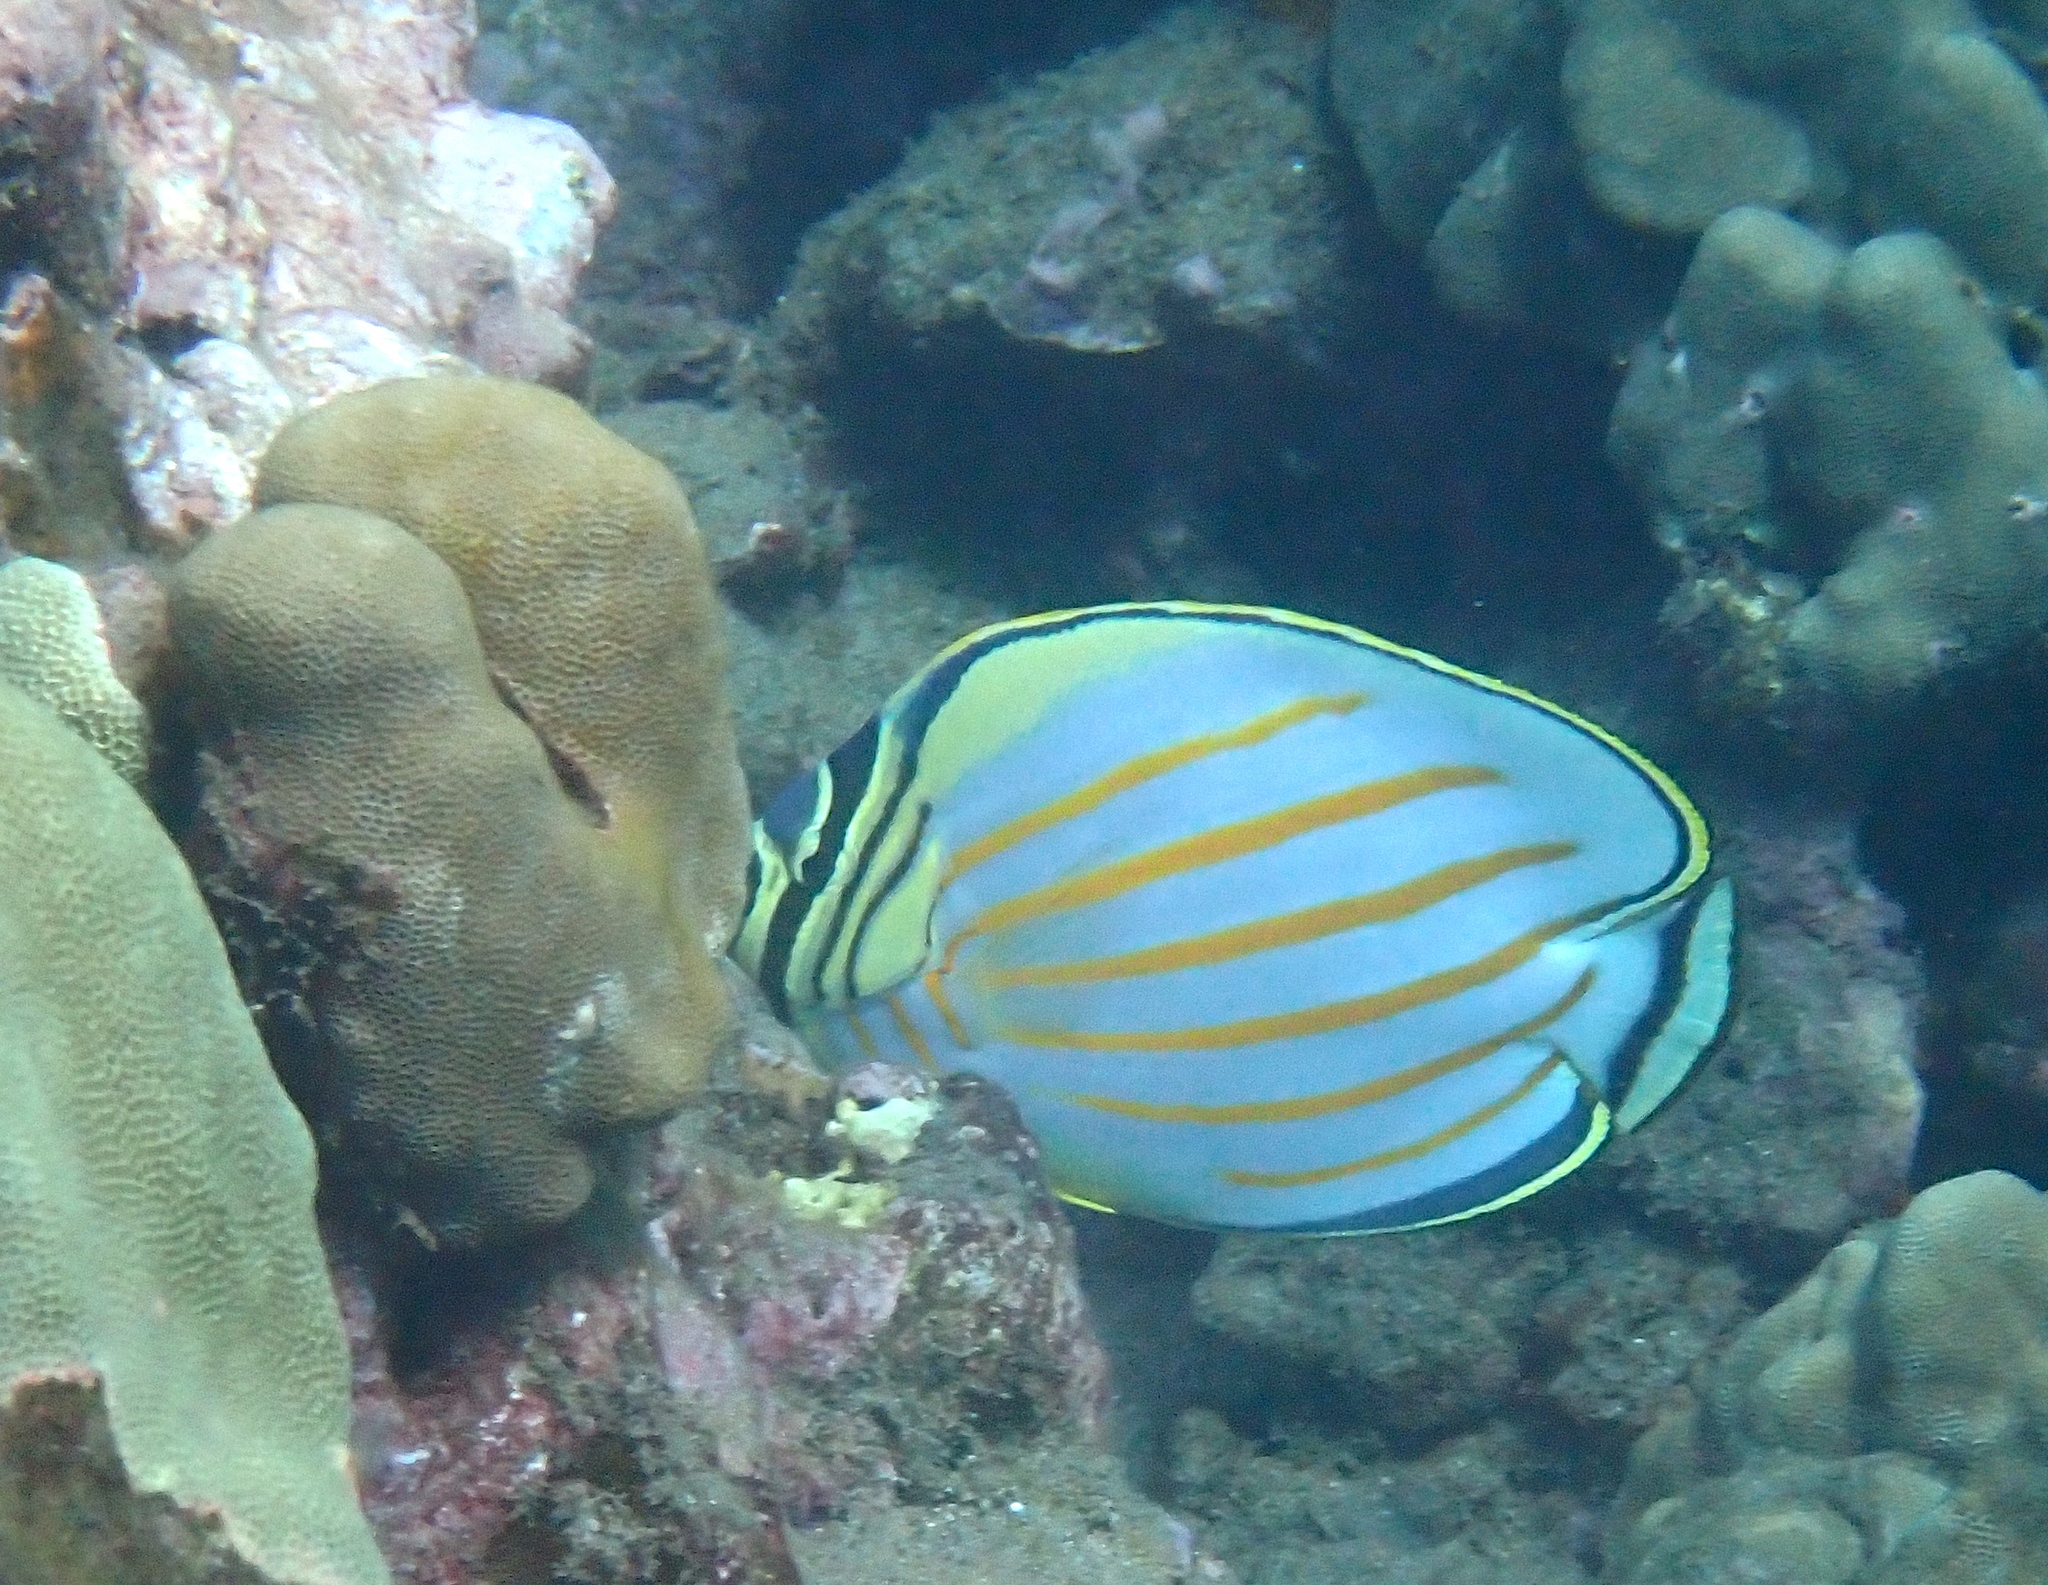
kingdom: Animalia
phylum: Chordata
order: Perciformes
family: Chaetodontidae
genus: Chaetodon
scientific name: Chaetodon ornatissimus
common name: Ornate butterflyfish
